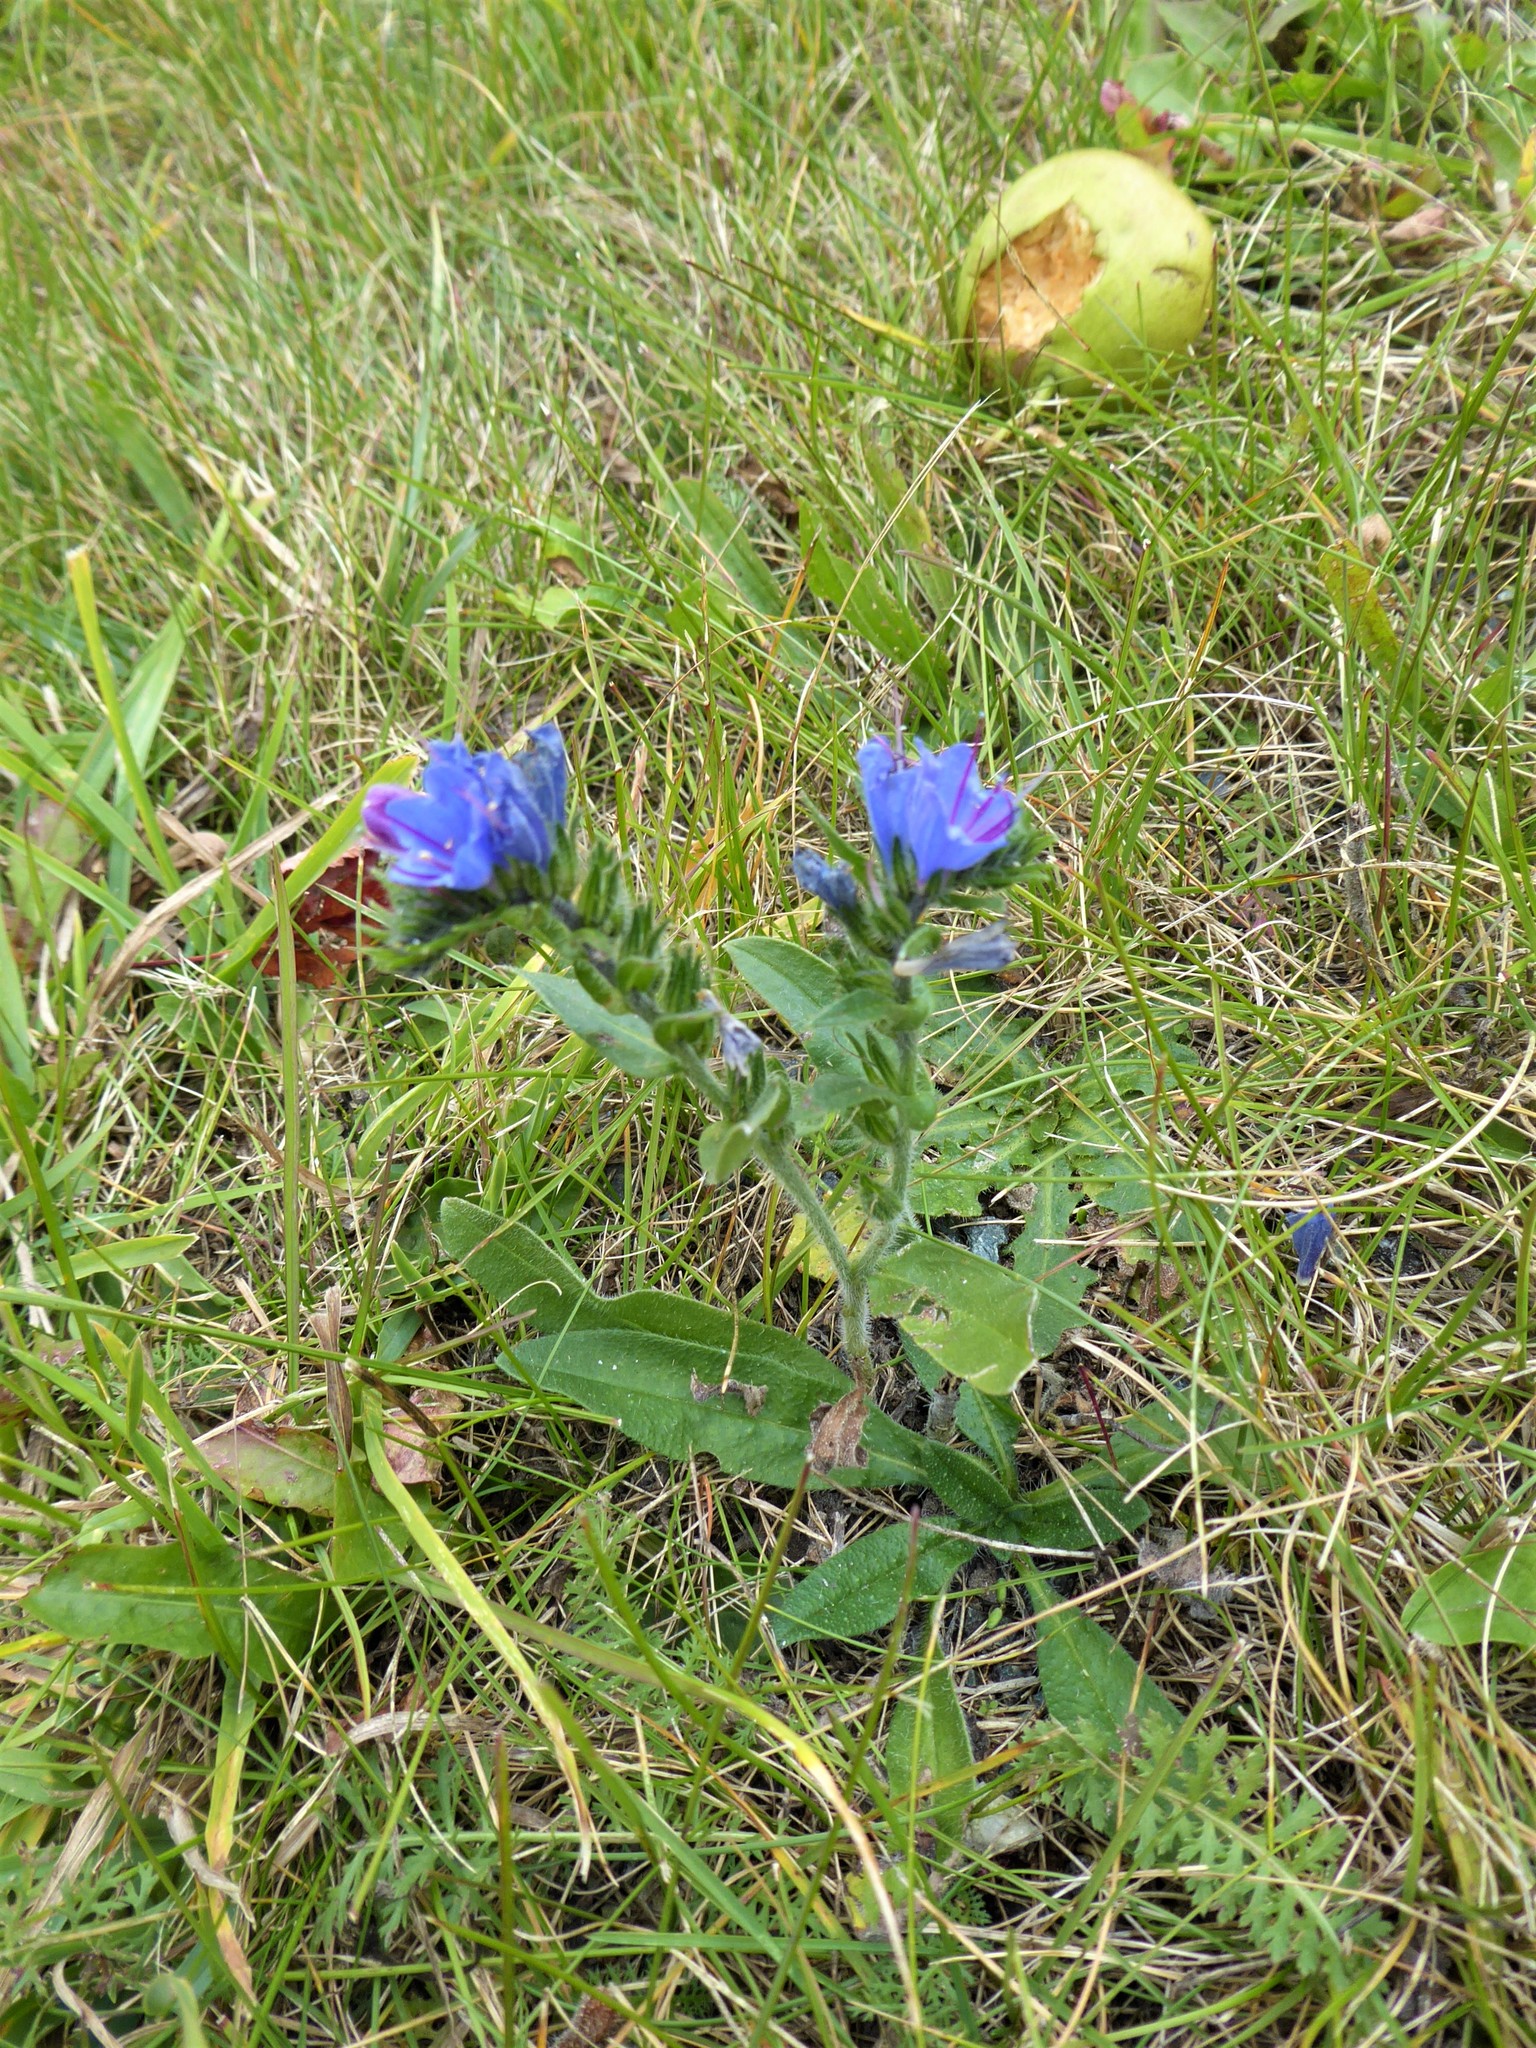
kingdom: Plantae
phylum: Tracheophyta
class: Magnoliopsida
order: Boraginales
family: Boraginaceae
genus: Echium
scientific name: Echium vulgare
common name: Common viper's bugloss
